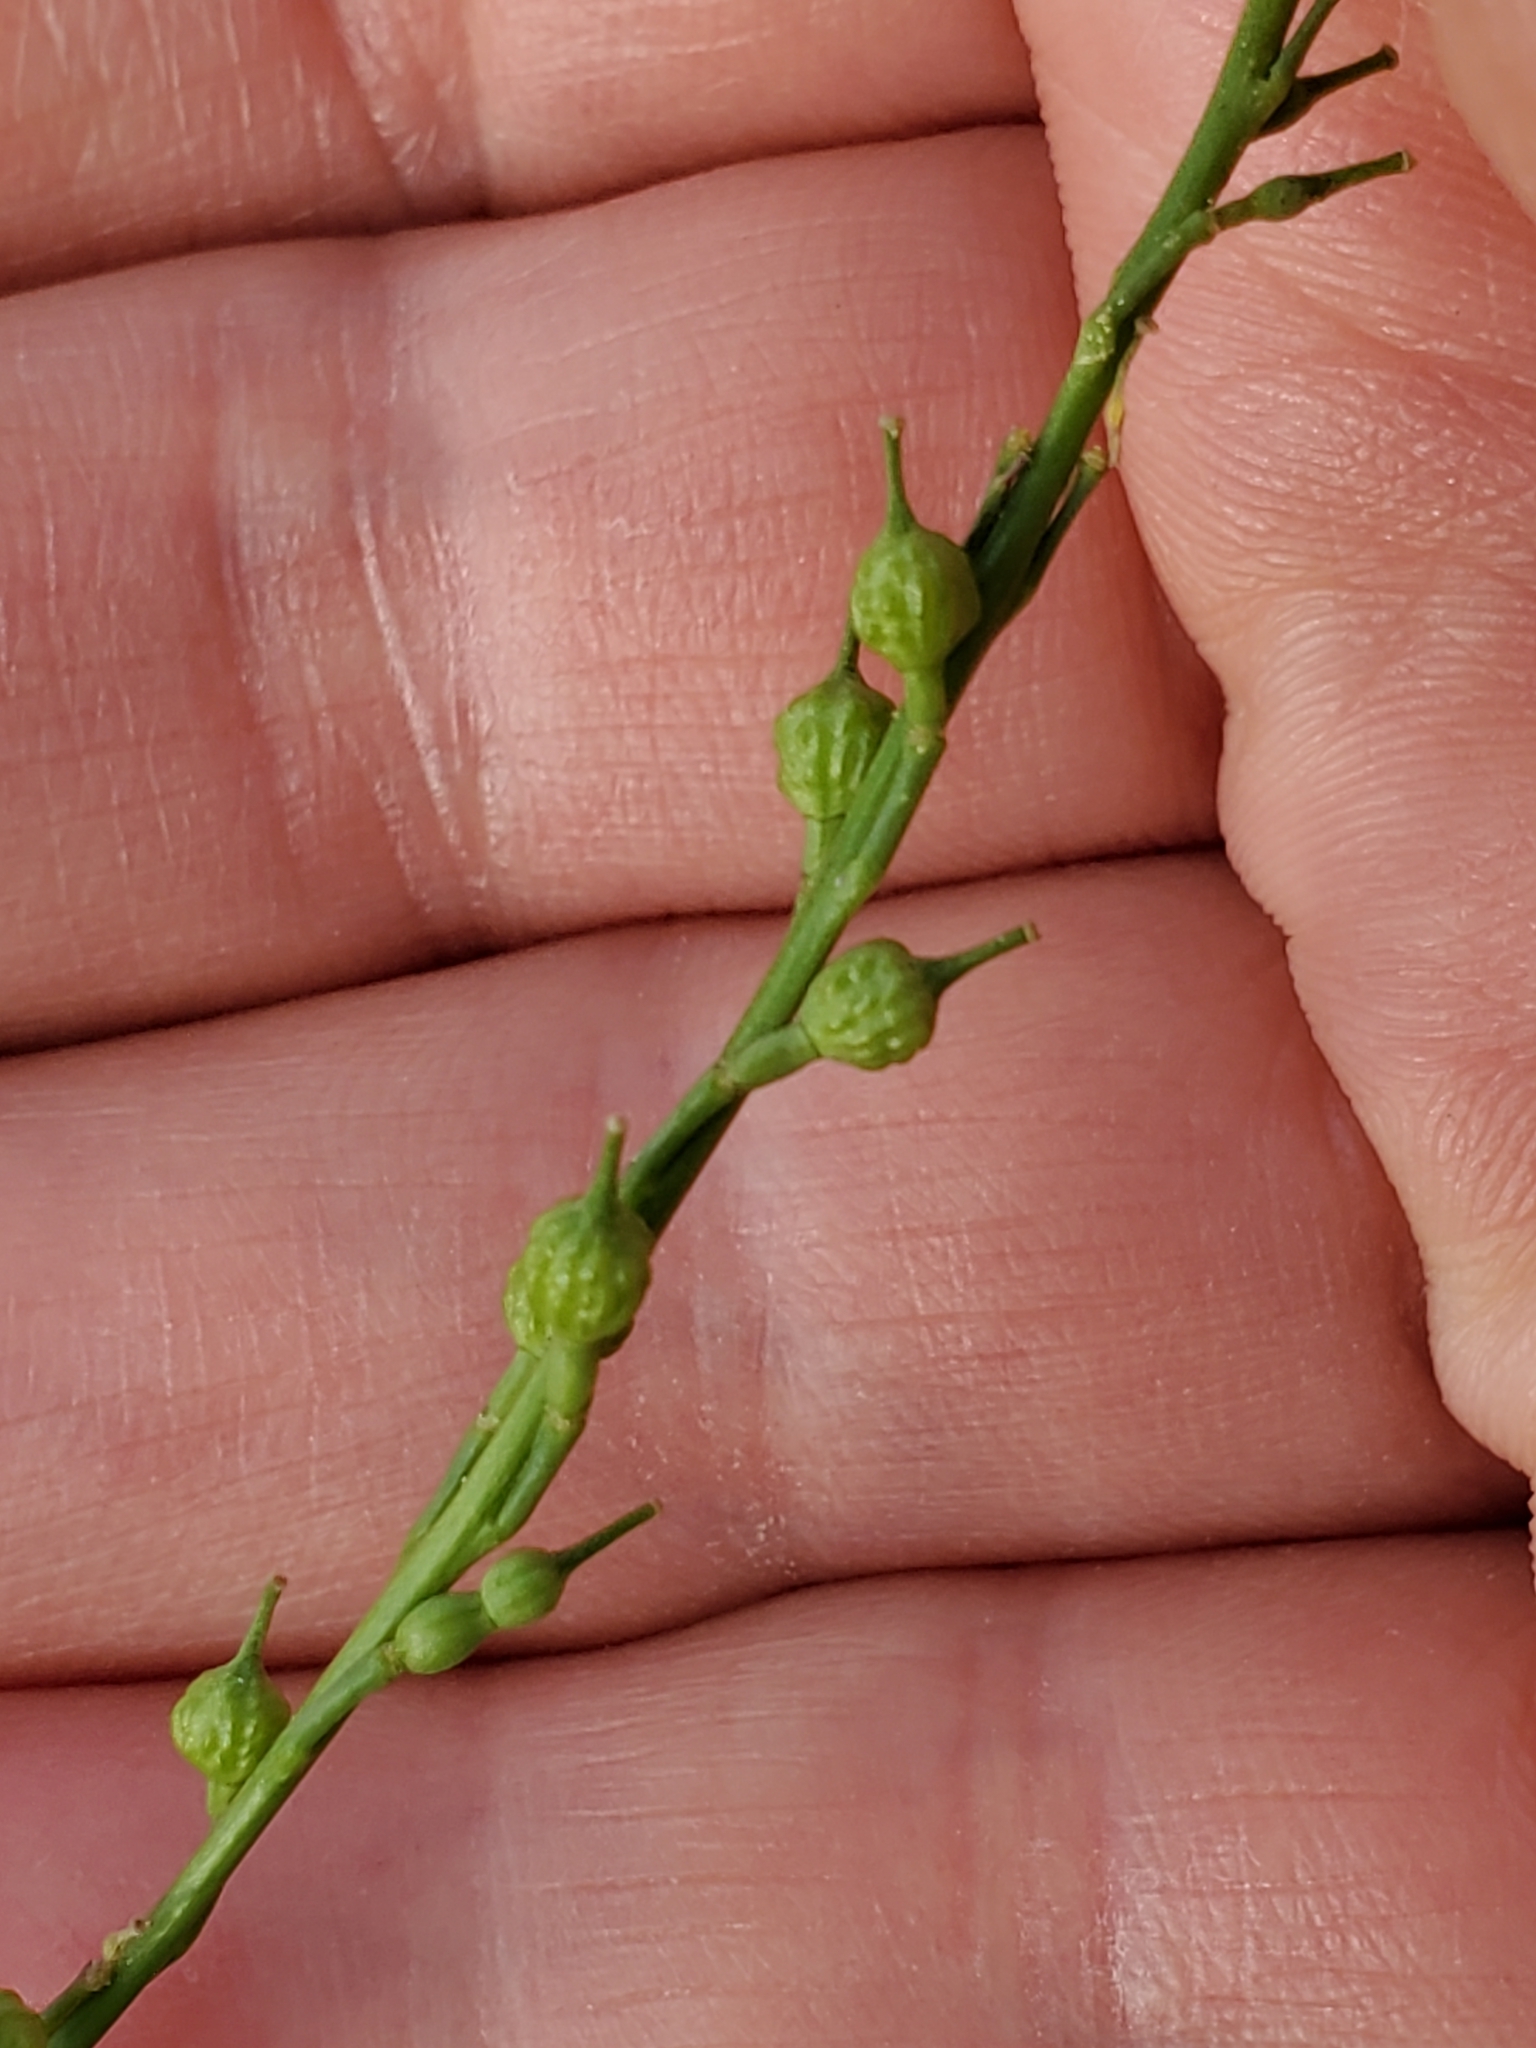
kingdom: Plantae
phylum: Tracheophyta
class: Magnoliopsida
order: Brassicales
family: Brassicaceae
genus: Rapistrum
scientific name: Rapistrum rugosum
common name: Annual bastardcabbage
